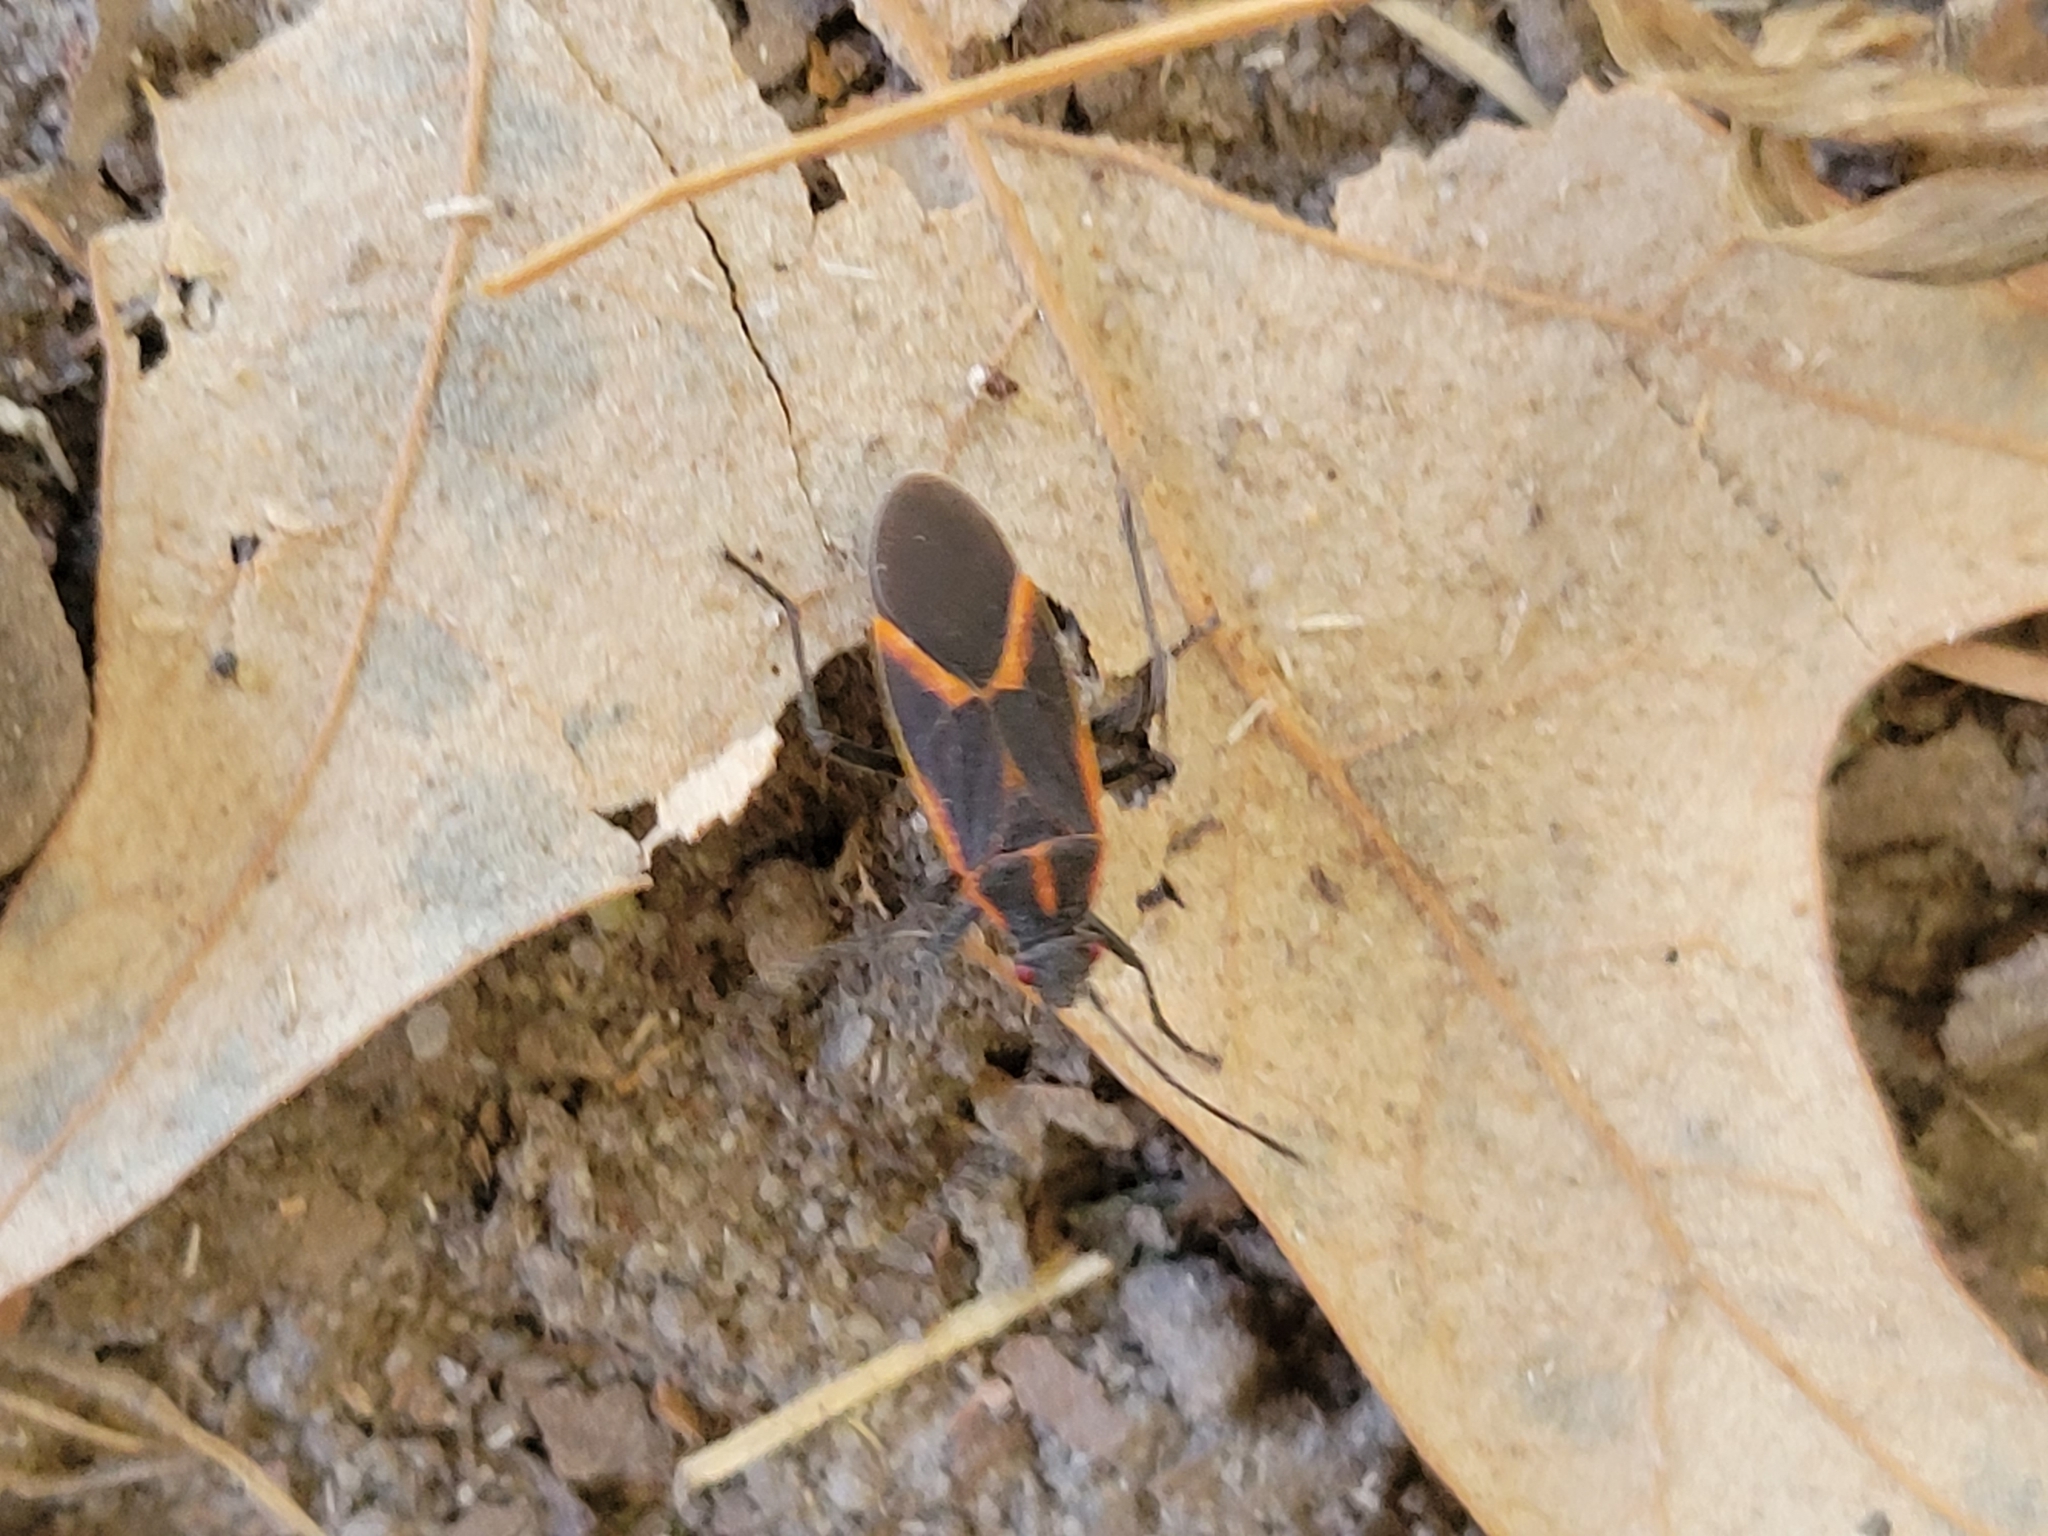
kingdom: Animalia
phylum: Arthropoda
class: Insecta
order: Hemiptera
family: Rhopalidae
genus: Boisea
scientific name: Boisea trivittata
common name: Boxelder bug
